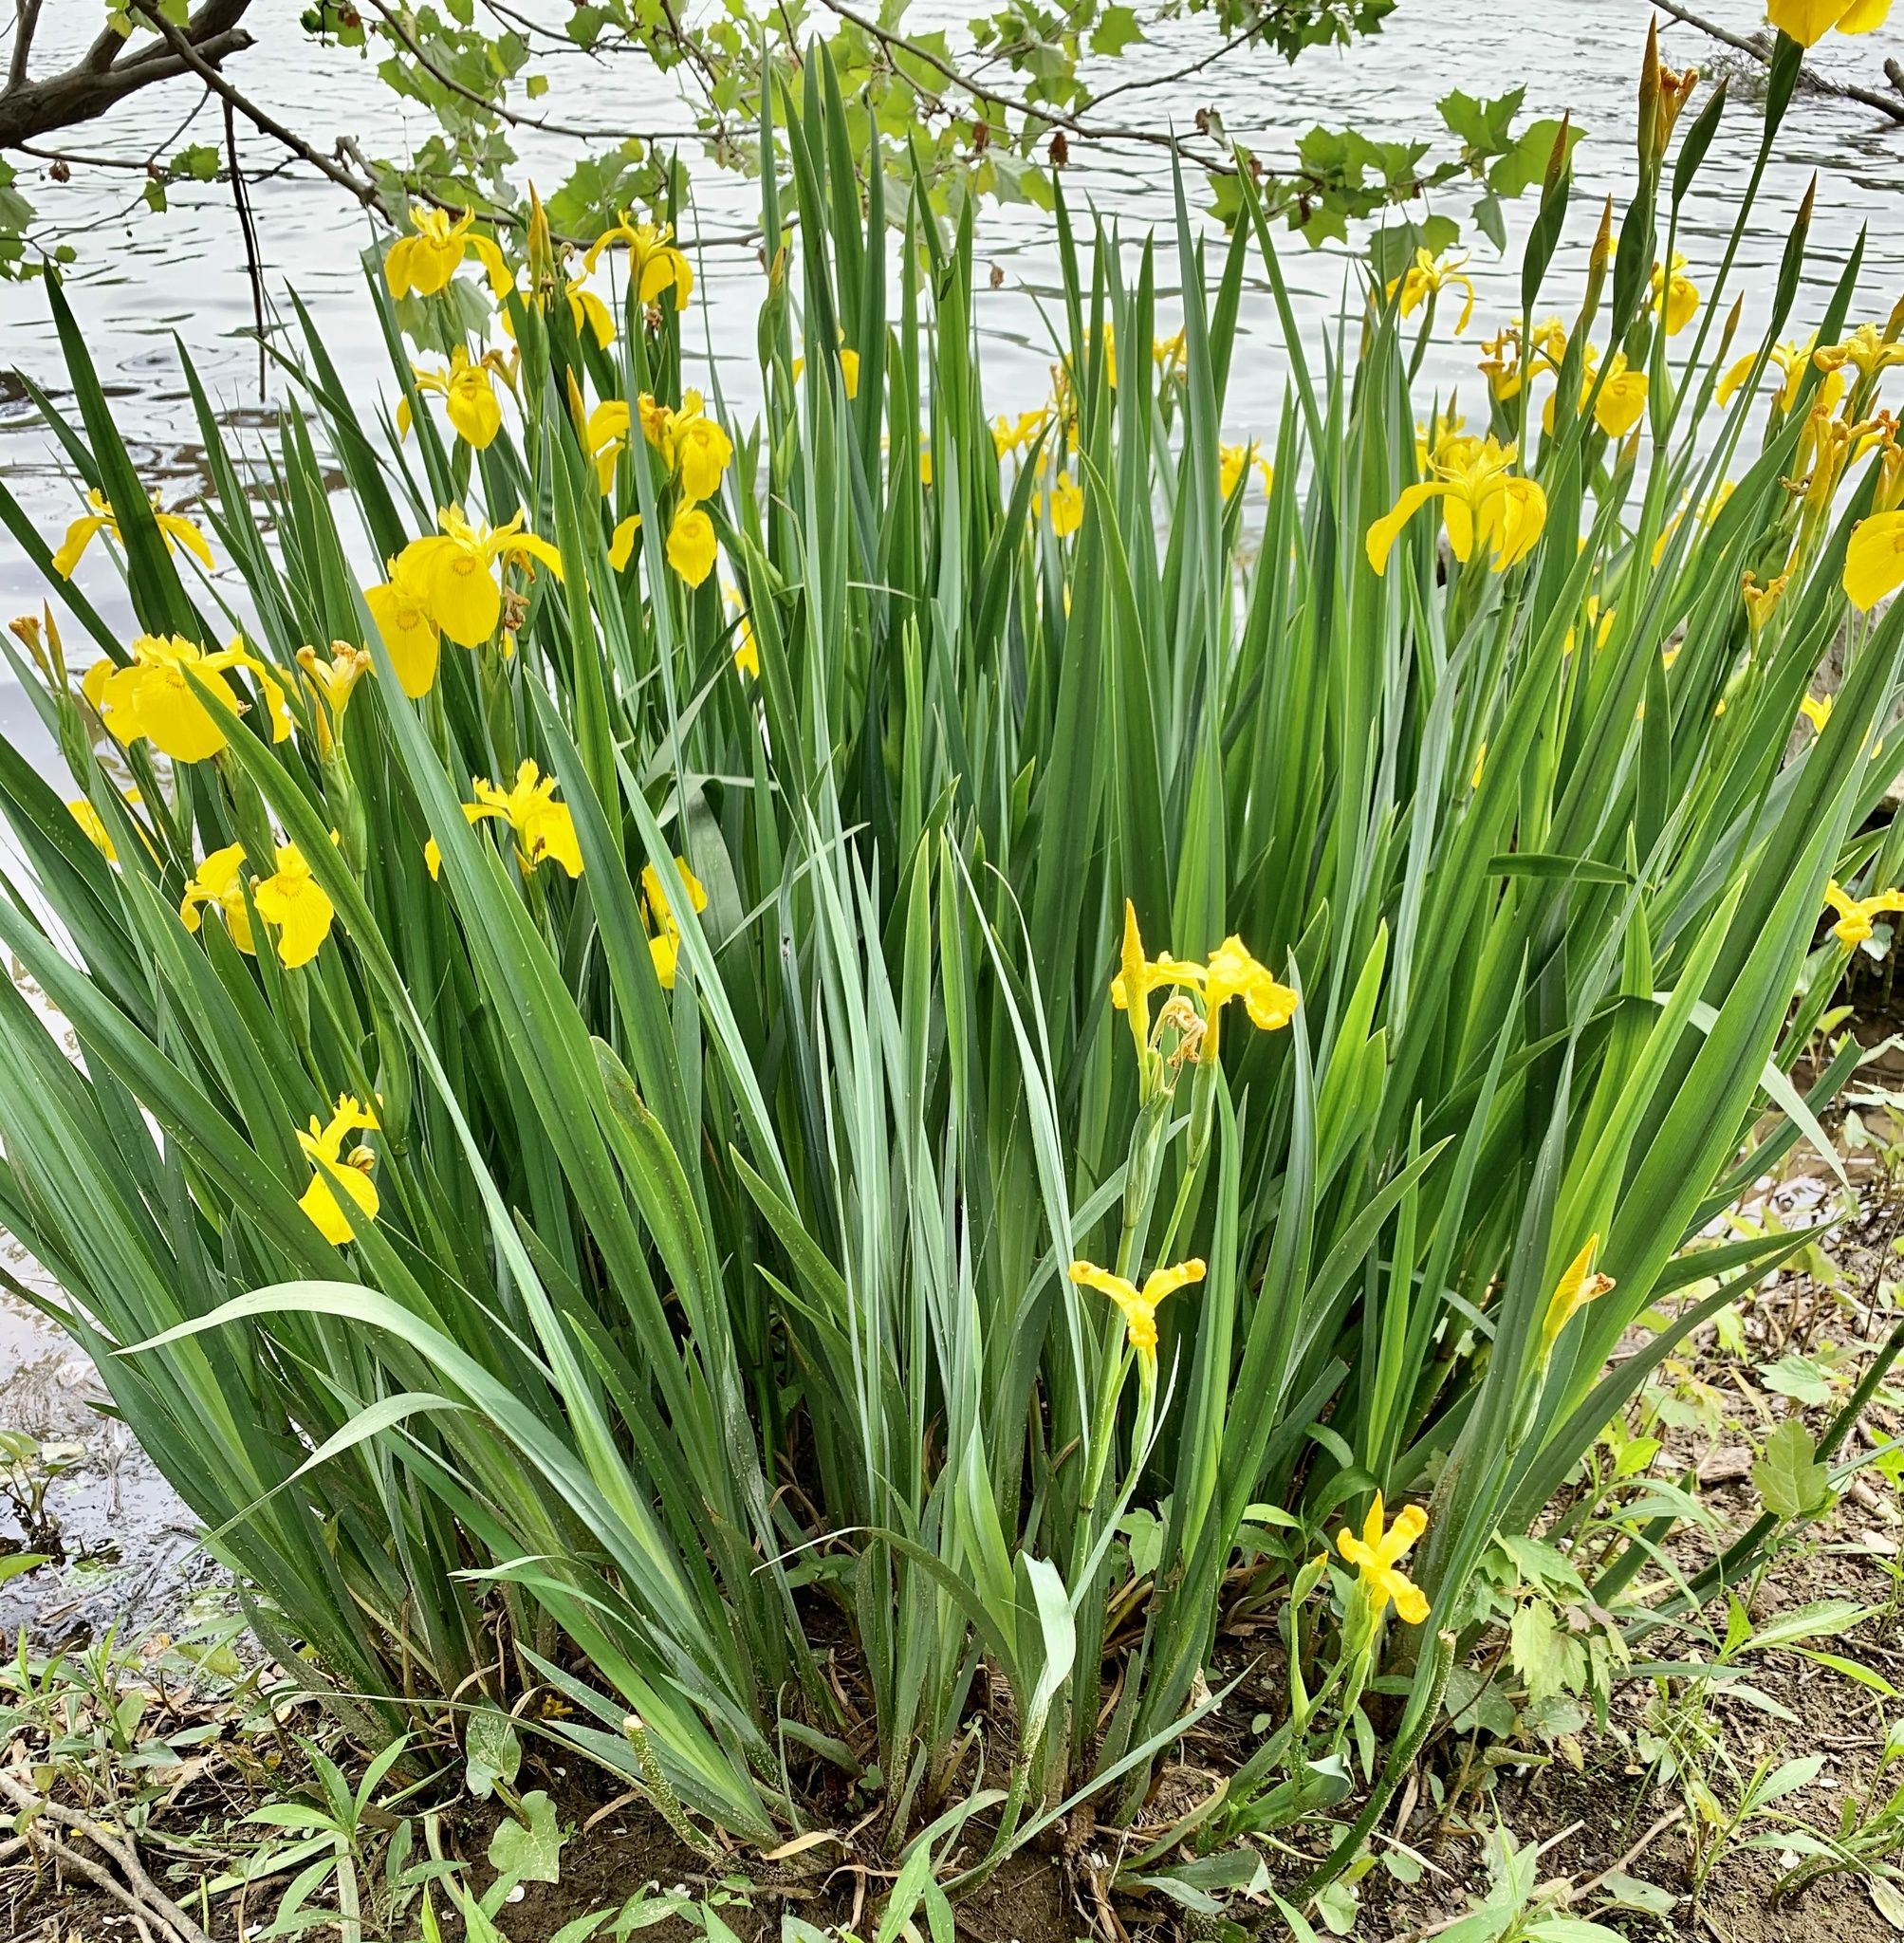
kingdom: Plantae
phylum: Tracheophyta
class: Liliopsida
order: Asparagales
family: Iridaceae
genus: Iris
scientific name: Iris pseudacorus
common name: Yellow flag
